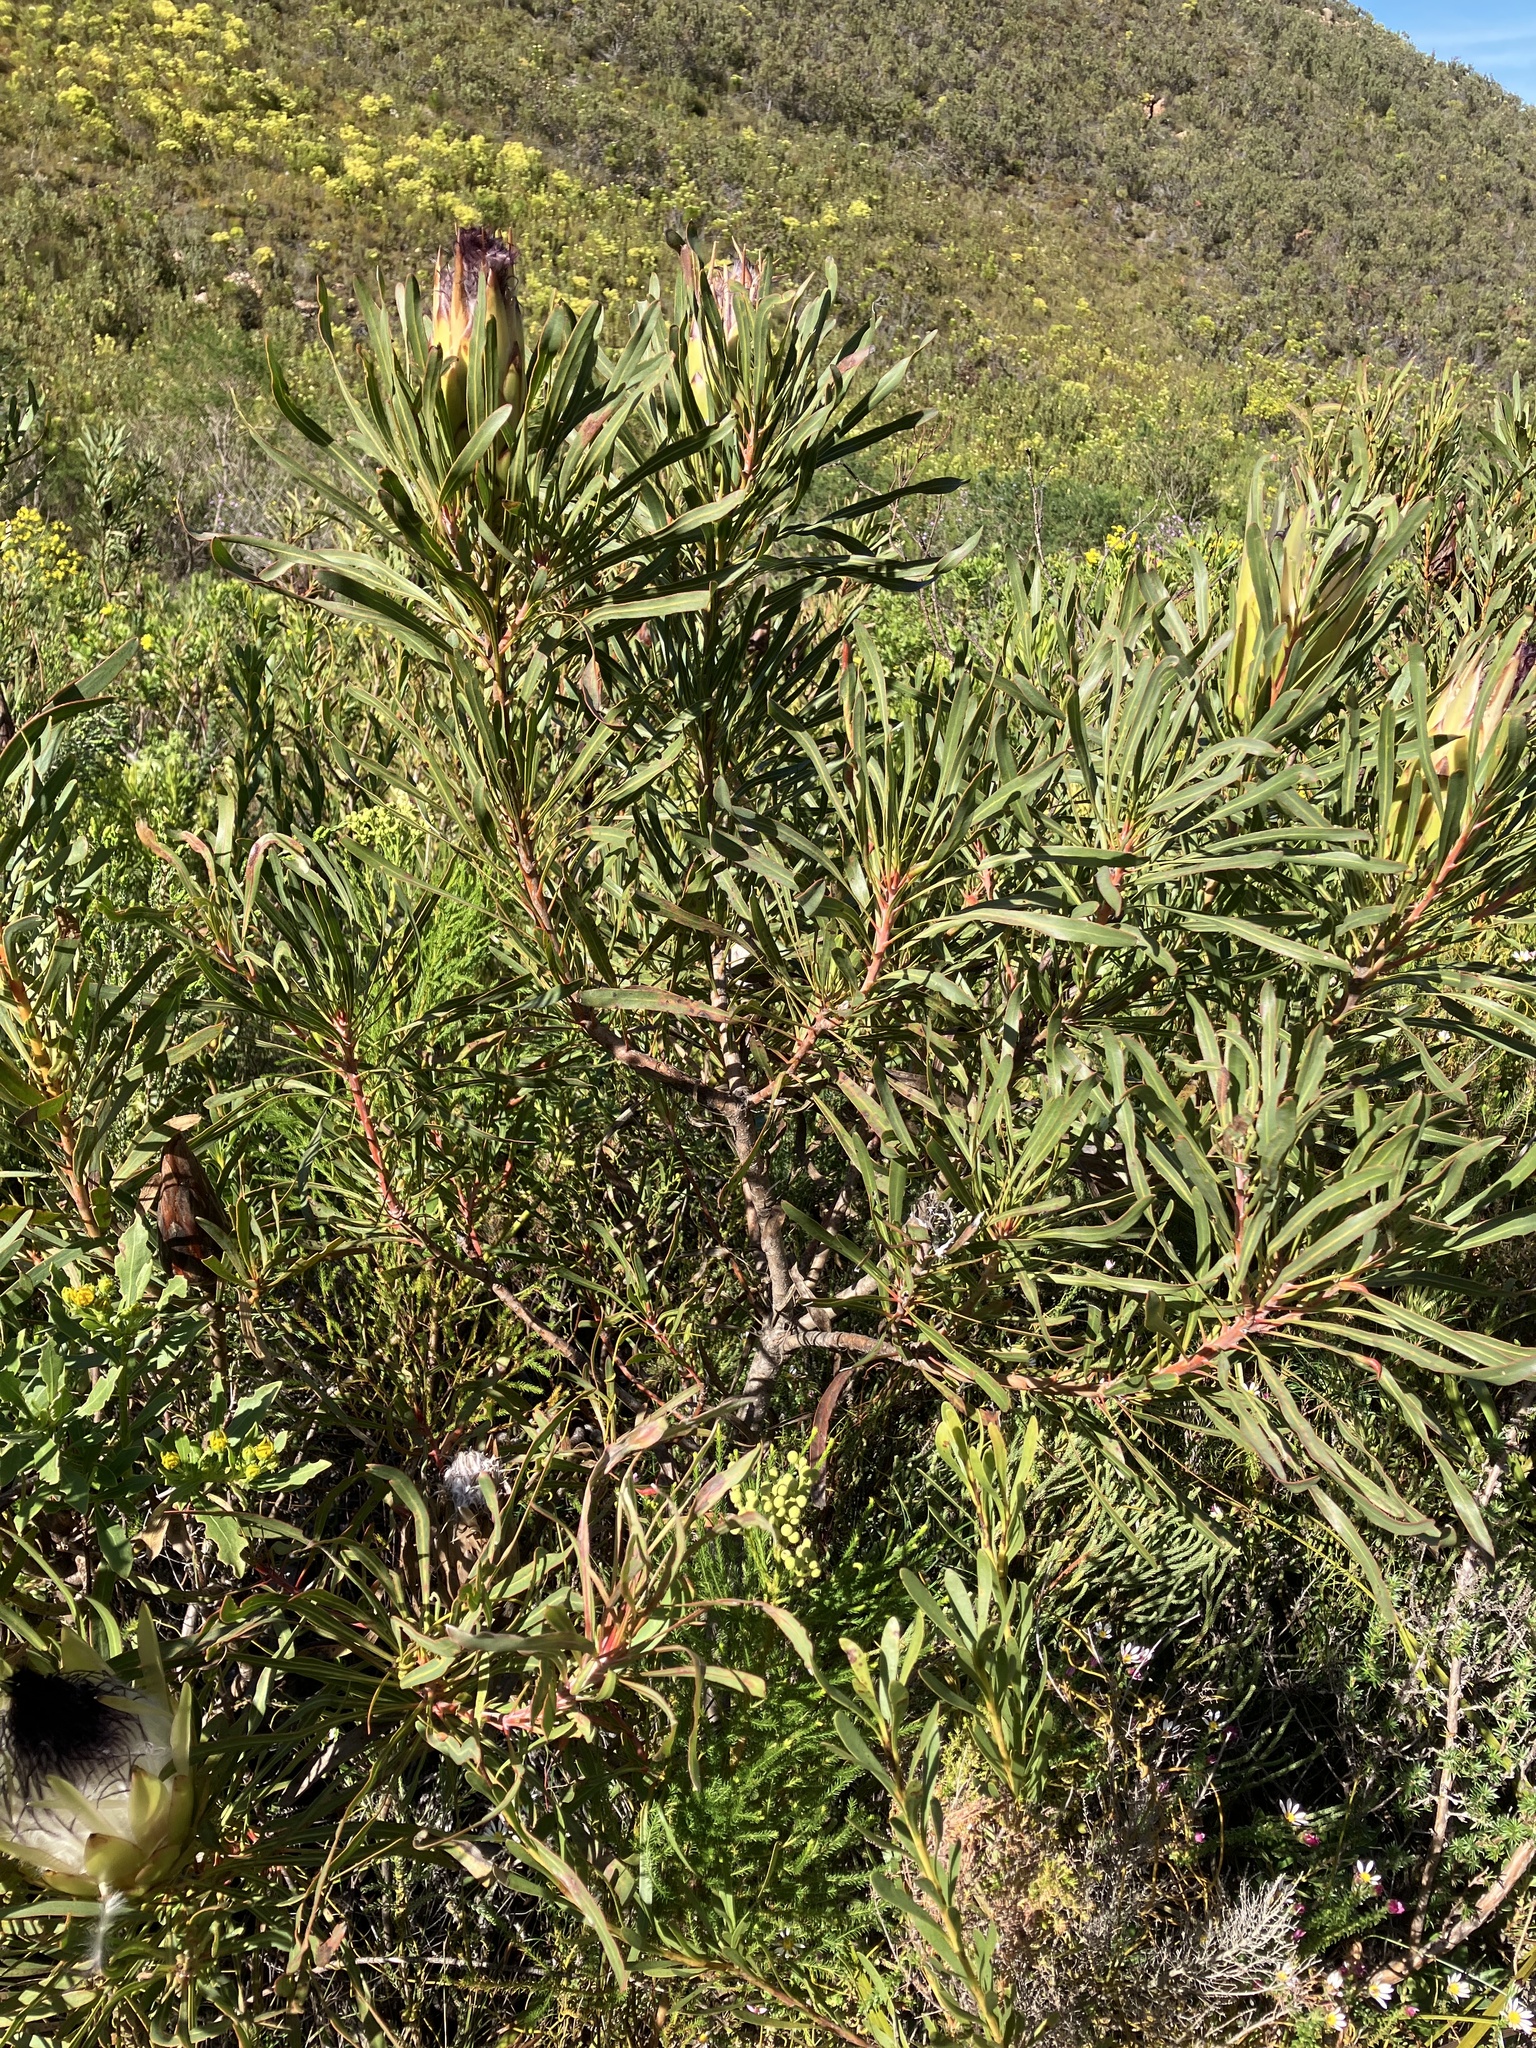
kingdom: Plantae
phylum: Tracheophyta
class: Magnoliopsida
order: Proteales
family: Proteaceae
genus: Protea
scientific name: Protea longifolia
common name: Long-leaf sugarbush
